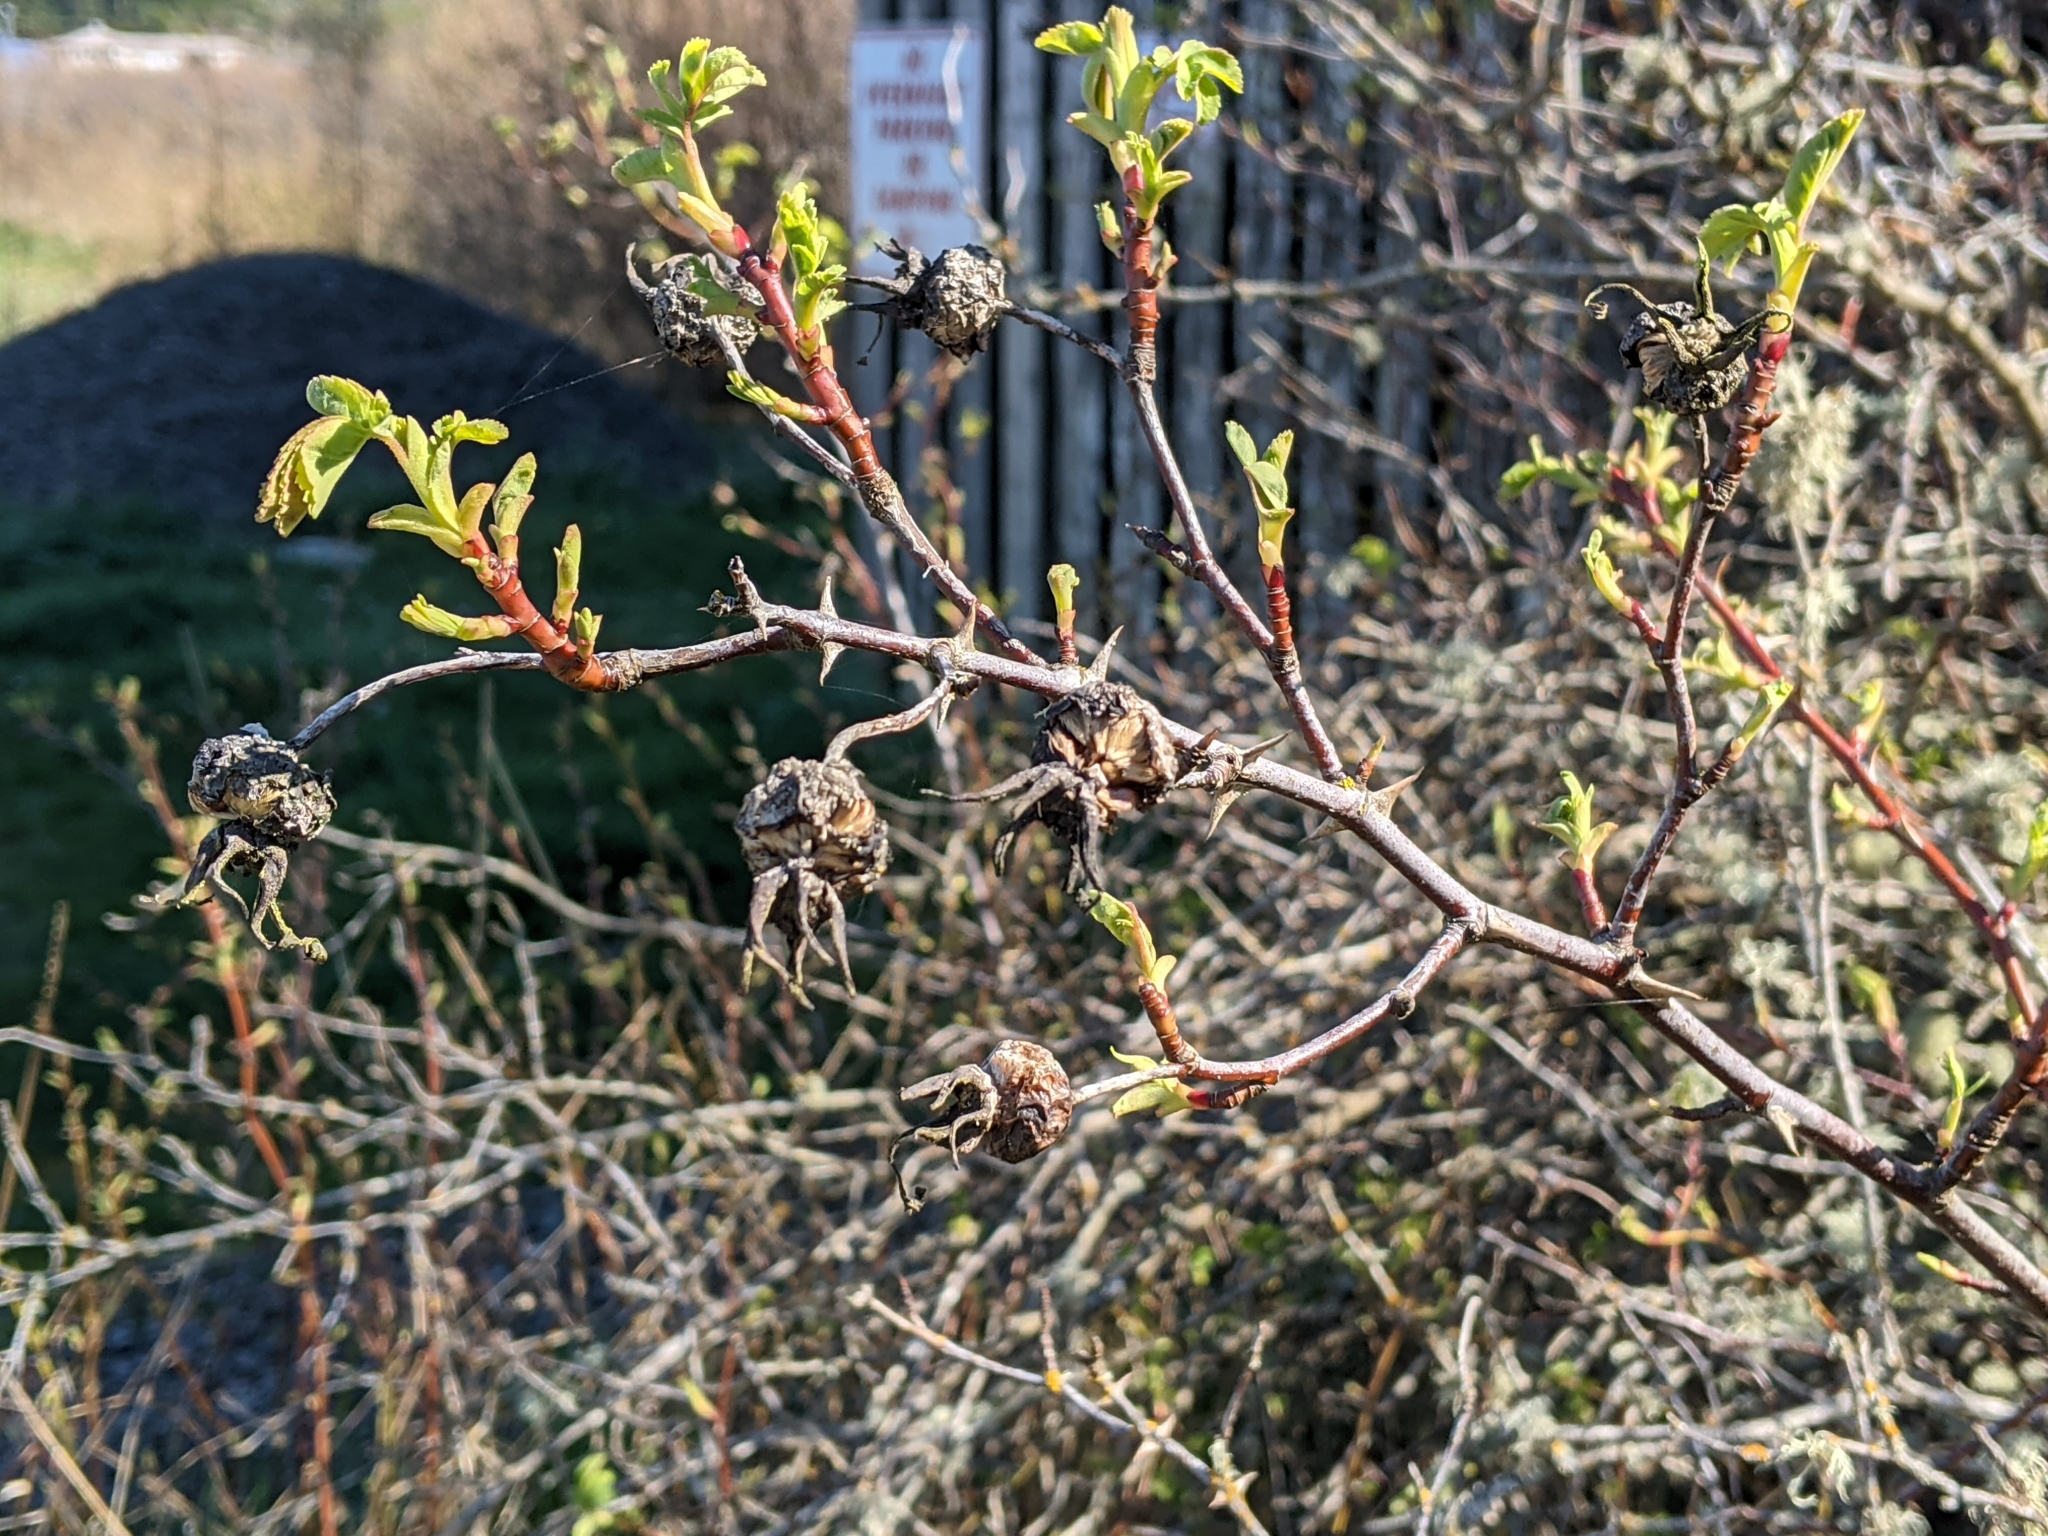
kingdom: Plantae
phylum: Tracheophyta
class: Magnoliopsida
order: Rosales
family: Rosaceae
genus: Rosa
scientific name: Rosa nutkana
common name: Nootka rose
